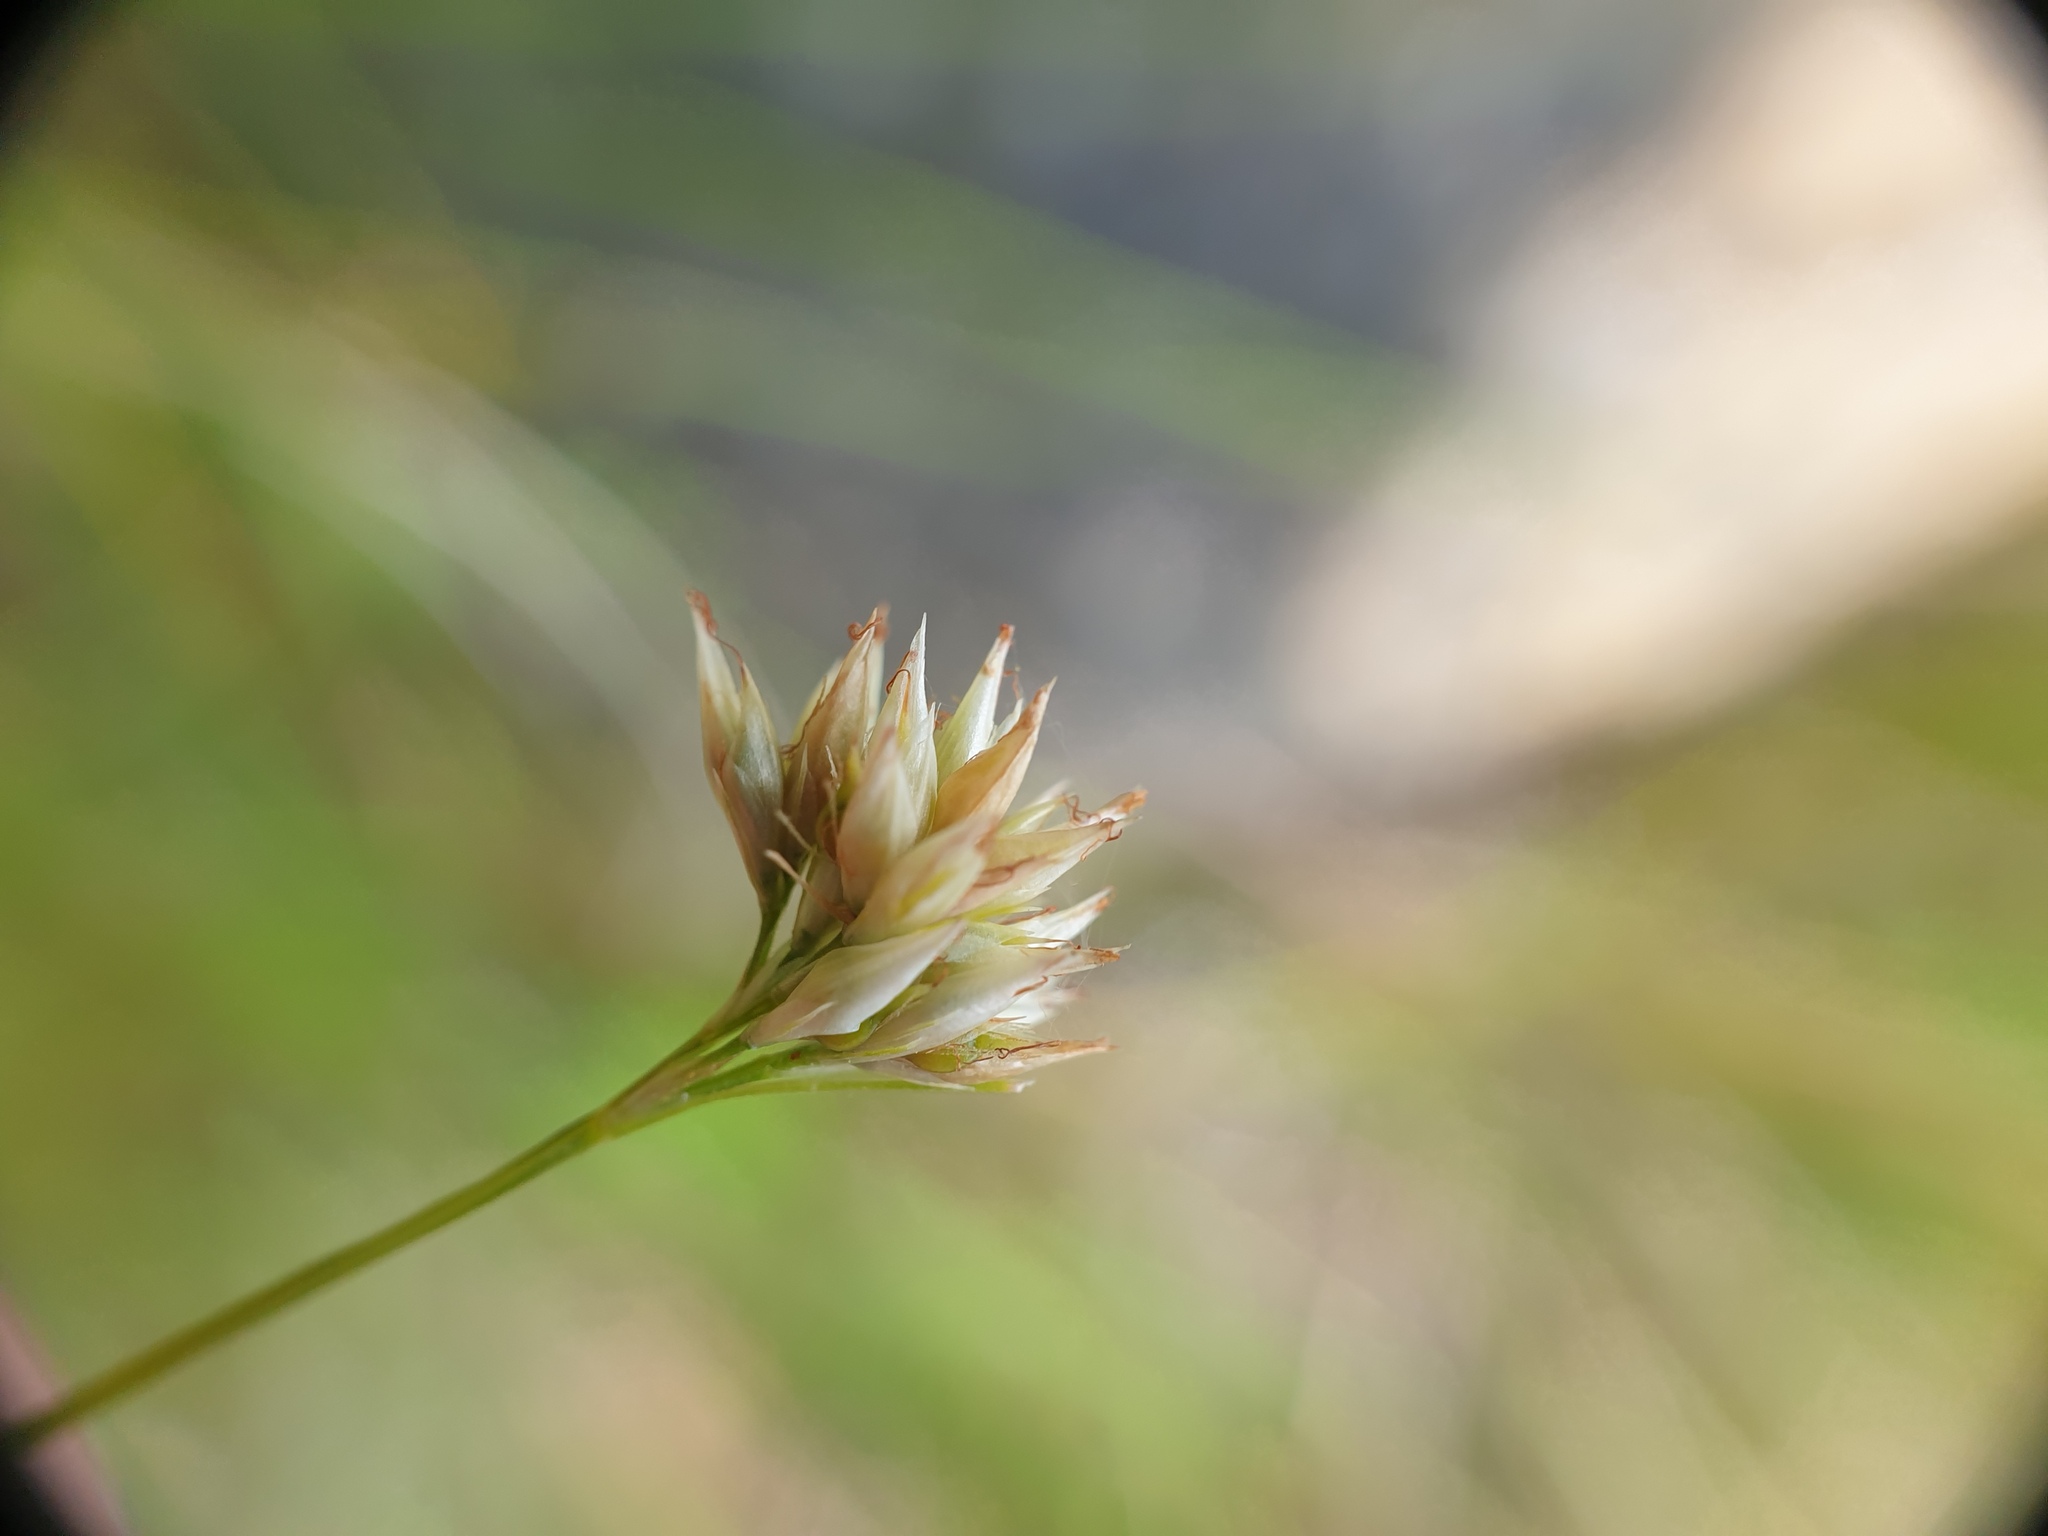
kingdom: Plantae
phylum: Tracheophyta
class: Liliopsida
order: Poales
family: Cyperaceae
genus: Rhynchospora
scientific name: Rhynchospora alba
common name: White beak-sedge
